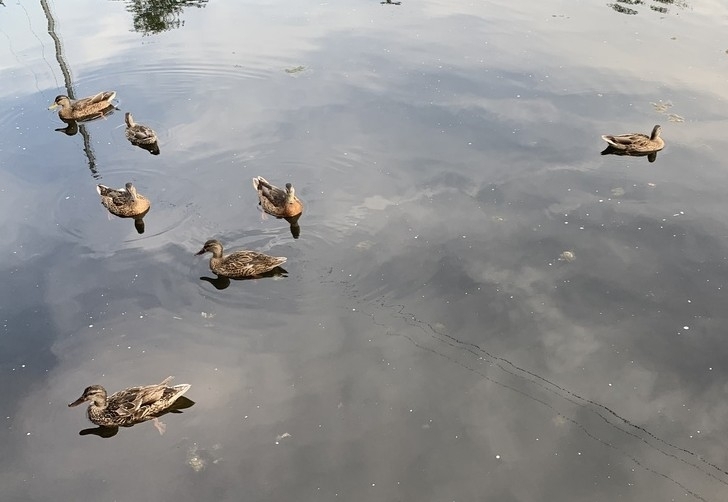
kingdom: Animalia
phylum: Chordata
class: Aves
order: Anseriformes
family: Anatidae
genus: Anas
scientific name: Anas platyrhynchos
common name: Mallard
